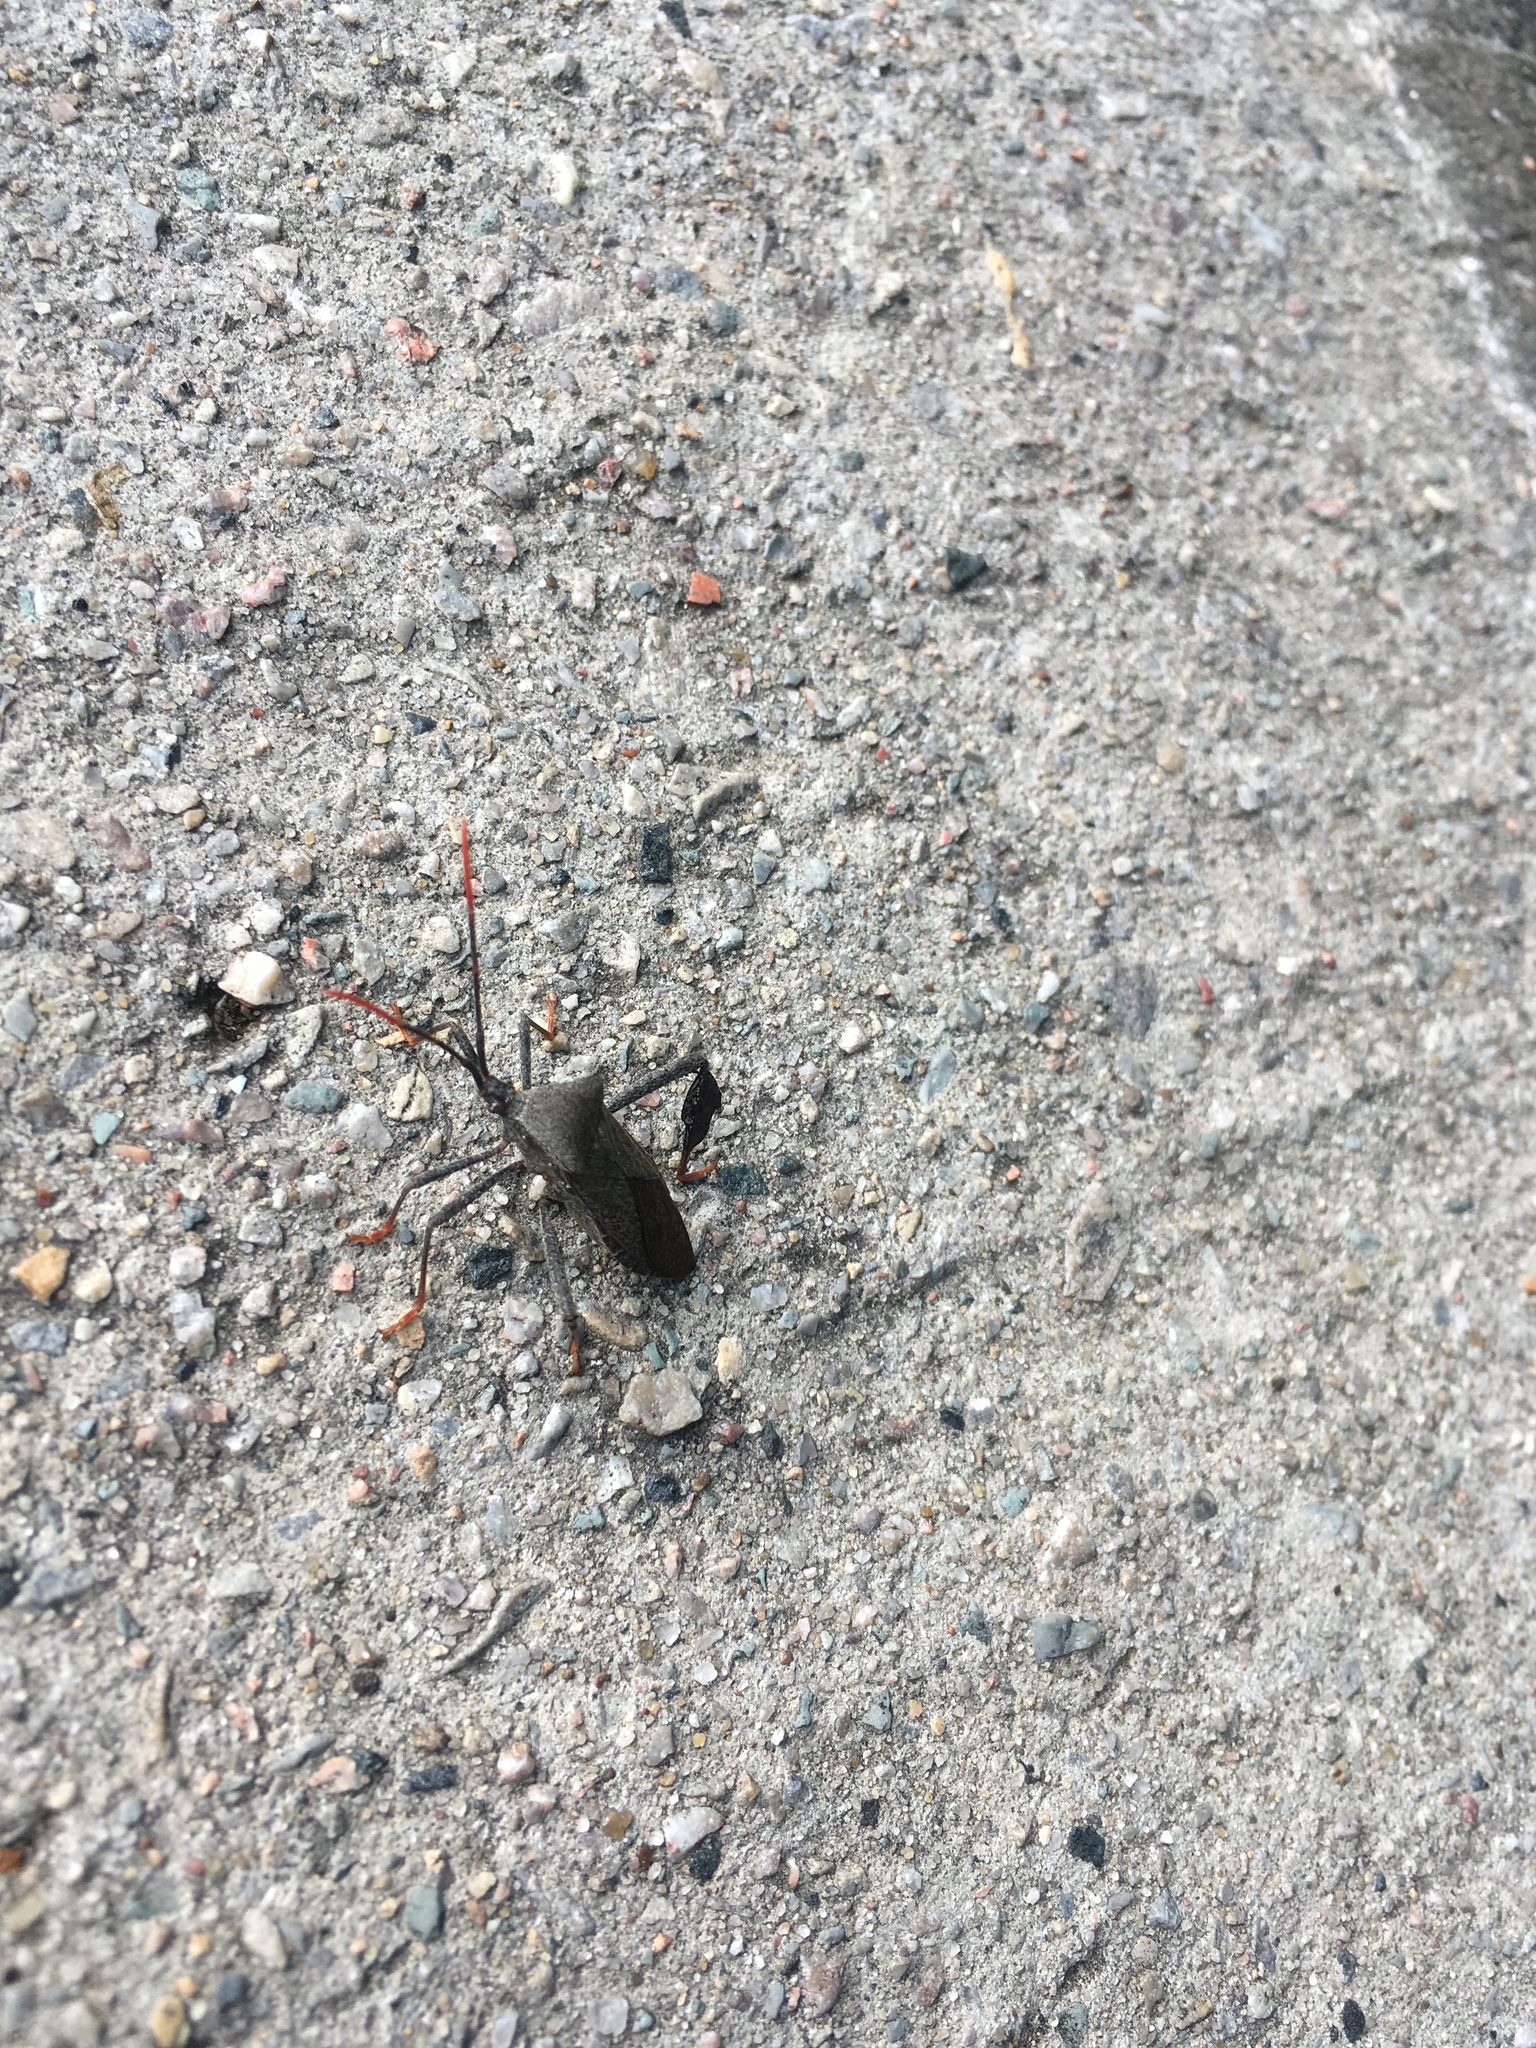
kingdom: Animalia
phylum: Arthropoda
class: Insecta
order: Hemiptera
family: Coreidae
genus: Acanthocephala
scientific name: Acanthocephala terminalis
